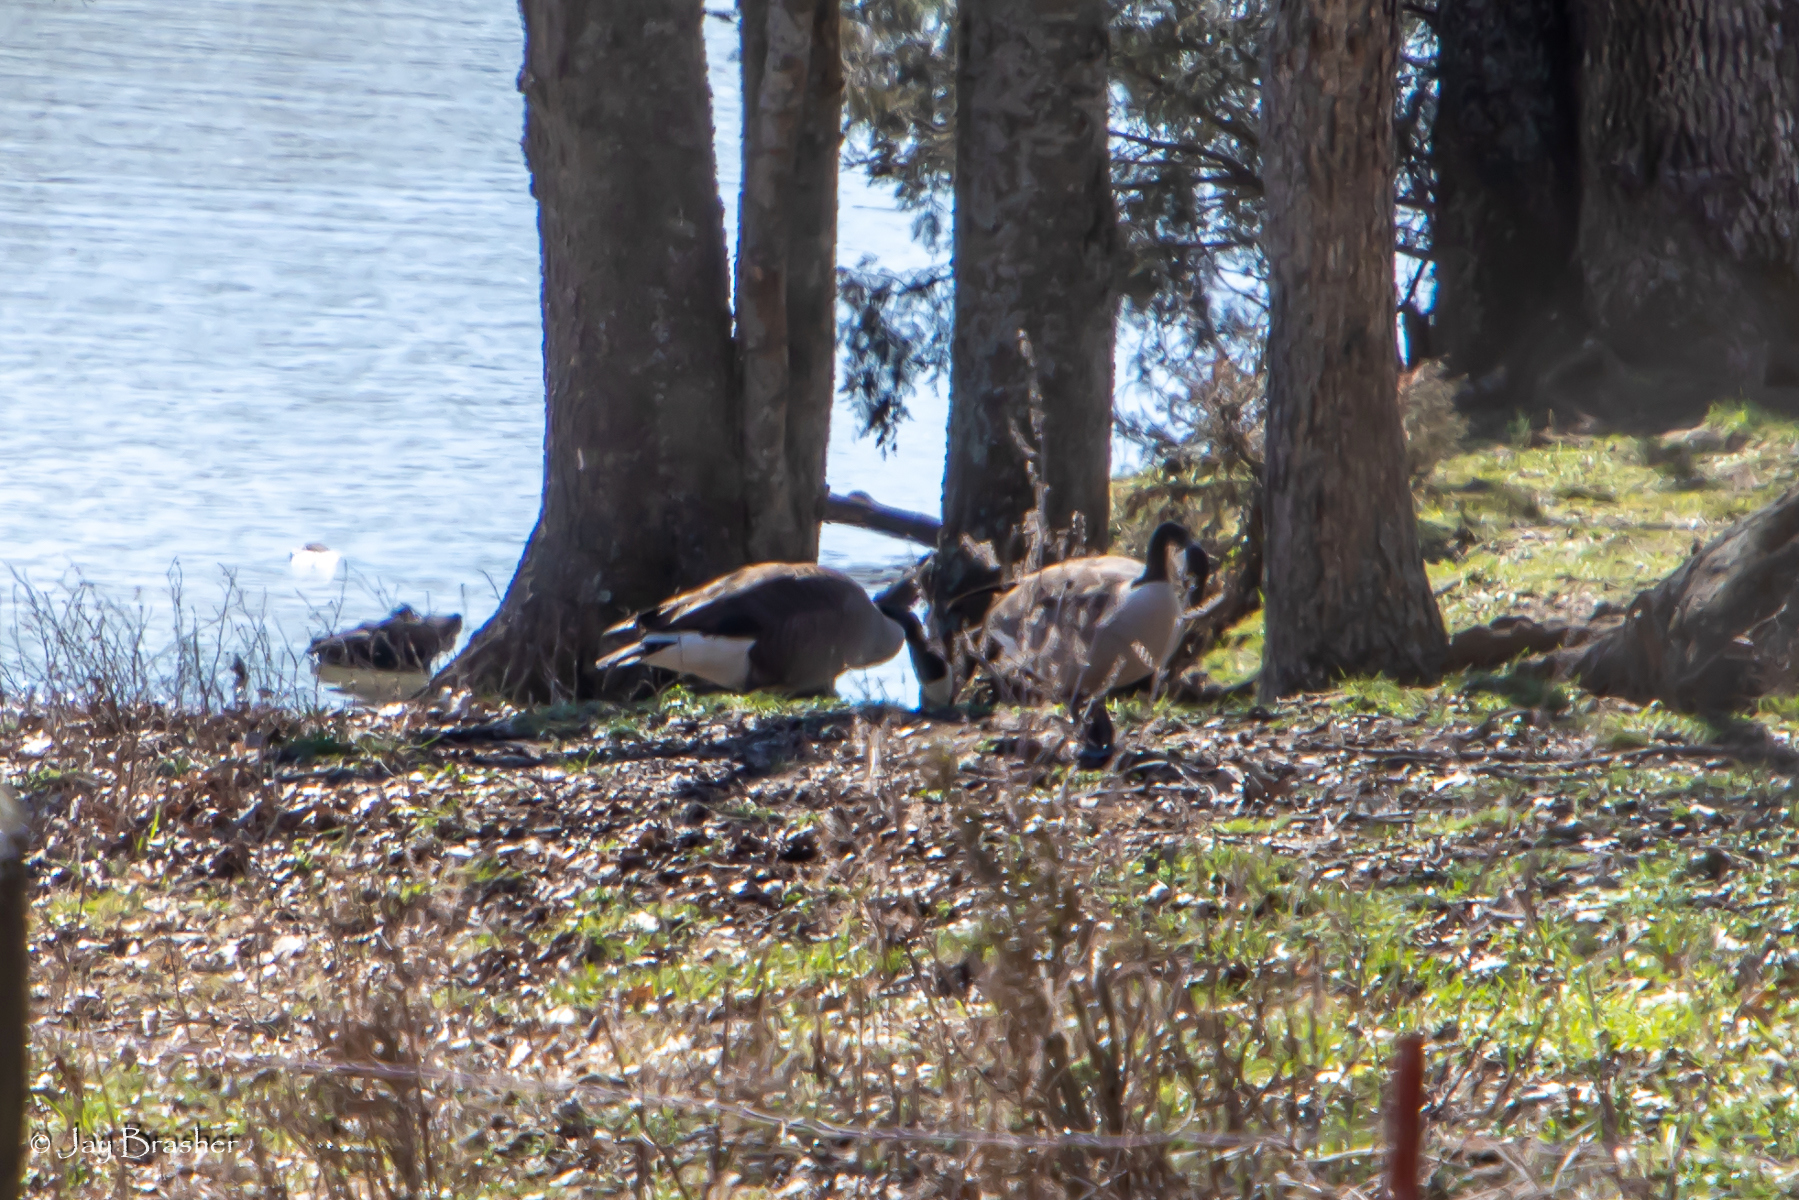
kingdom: Animalia
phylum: Chordata
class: Aves
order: Anseriformes
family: Anatidae
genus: Branta
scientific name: Branta canadensis
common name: Canada goose
